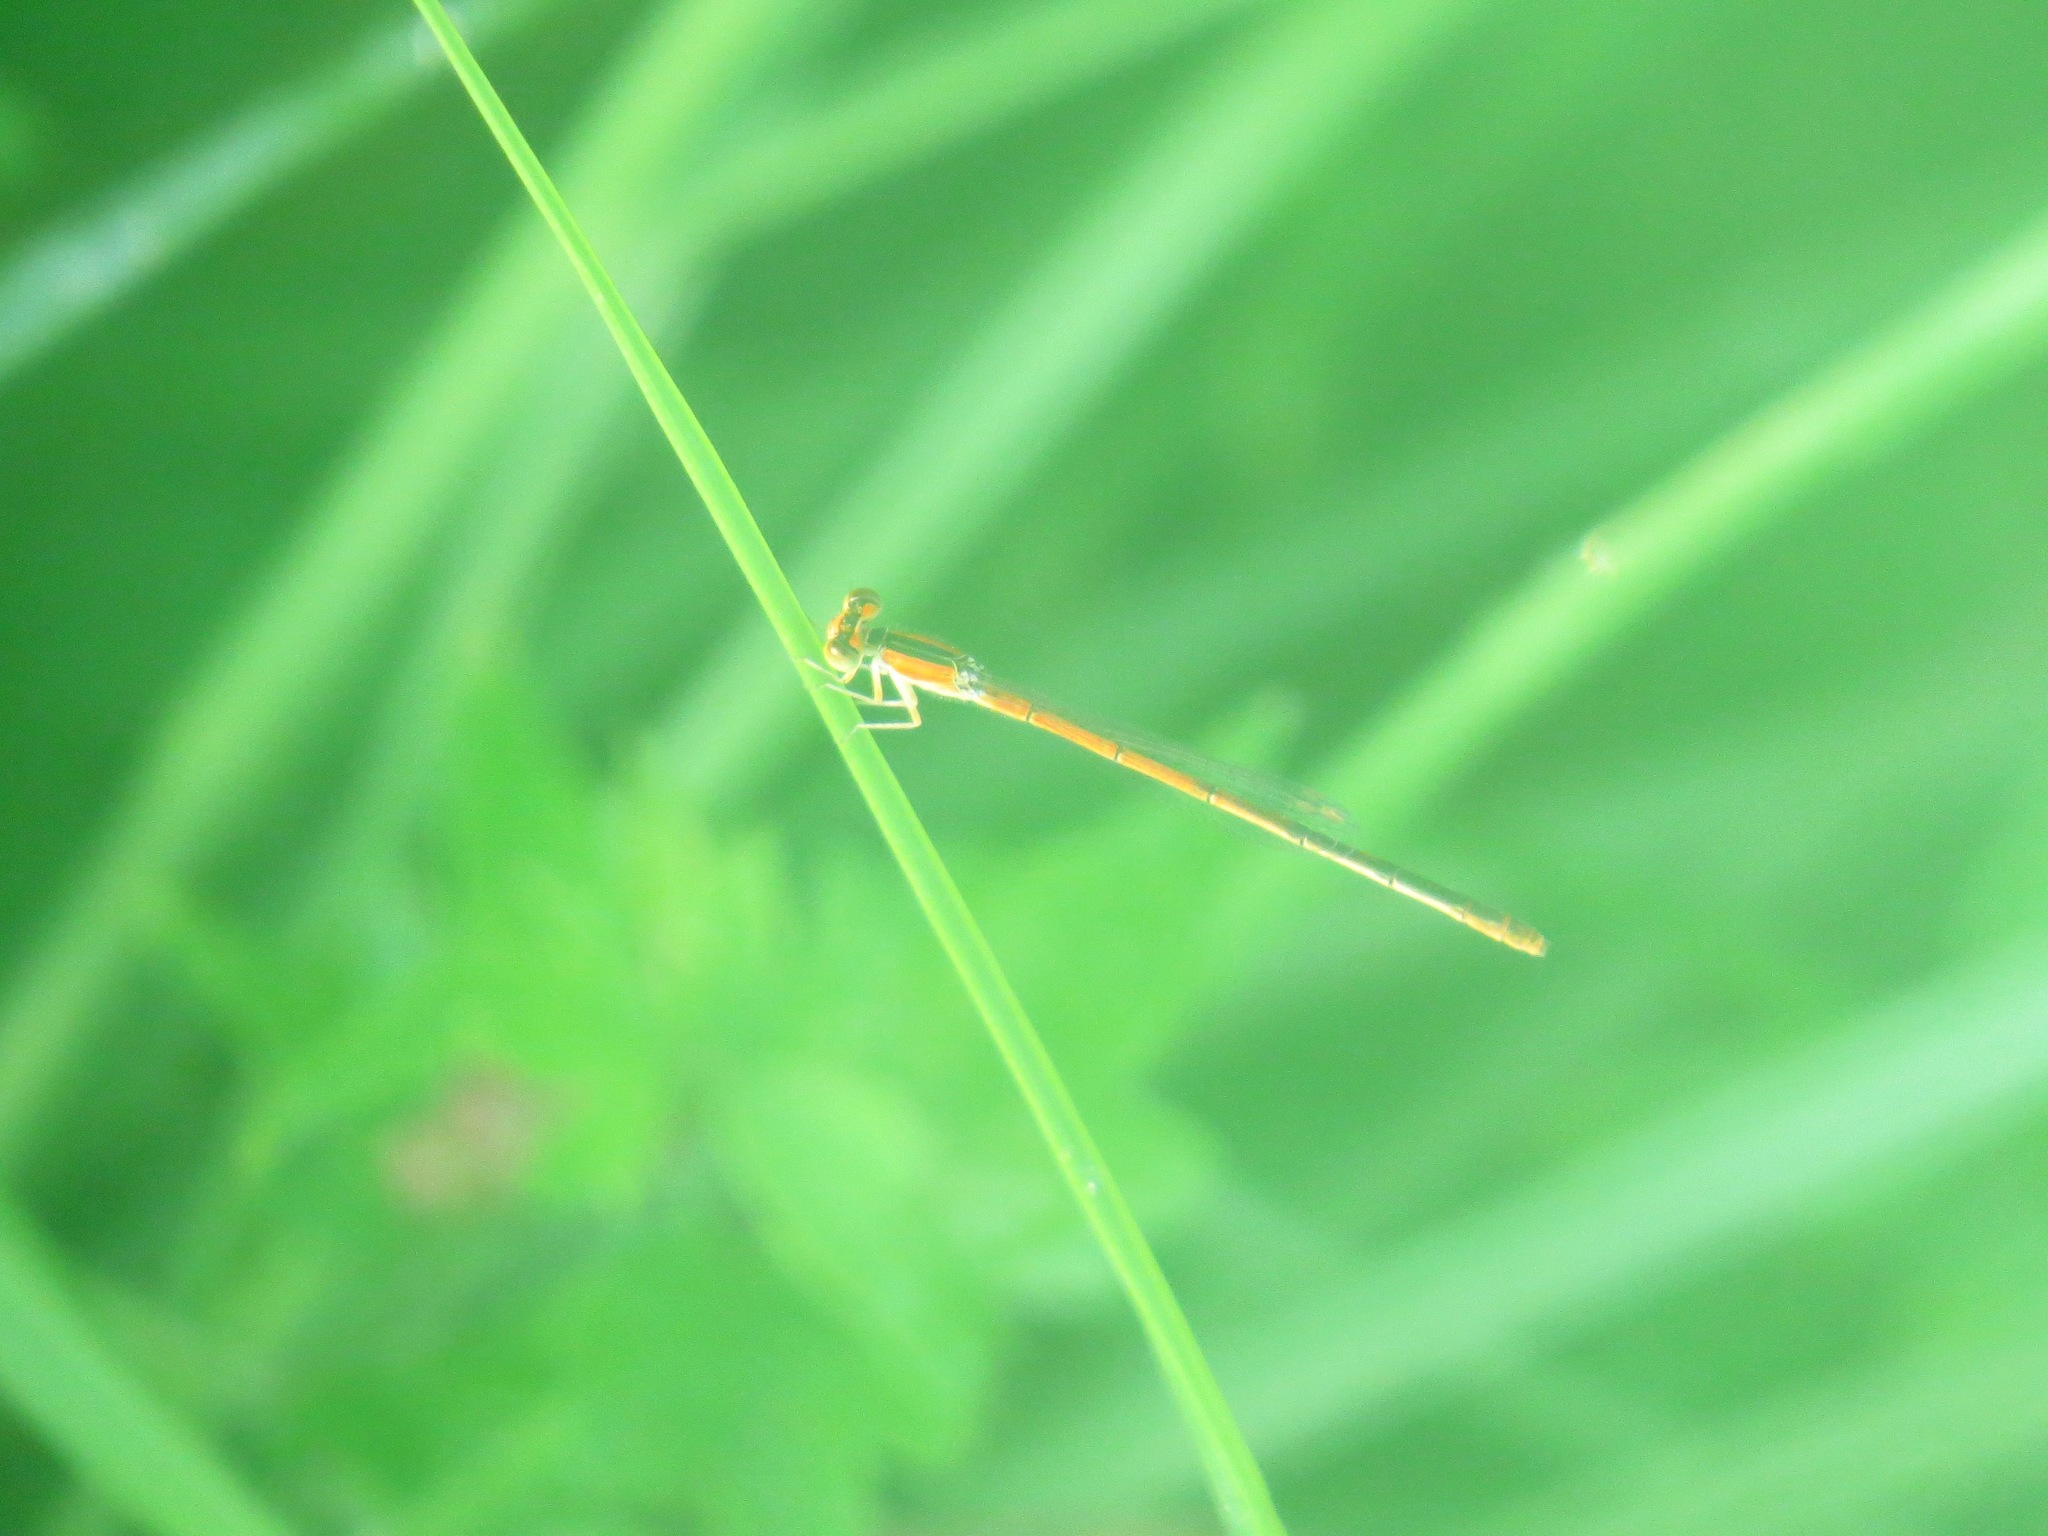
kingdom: Animalia
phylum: Arthropoda
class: Insecta
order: Odonata
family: Coenagrionidae
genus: Ischnura
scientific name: Ischnura hastata
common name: Citrine forktail
